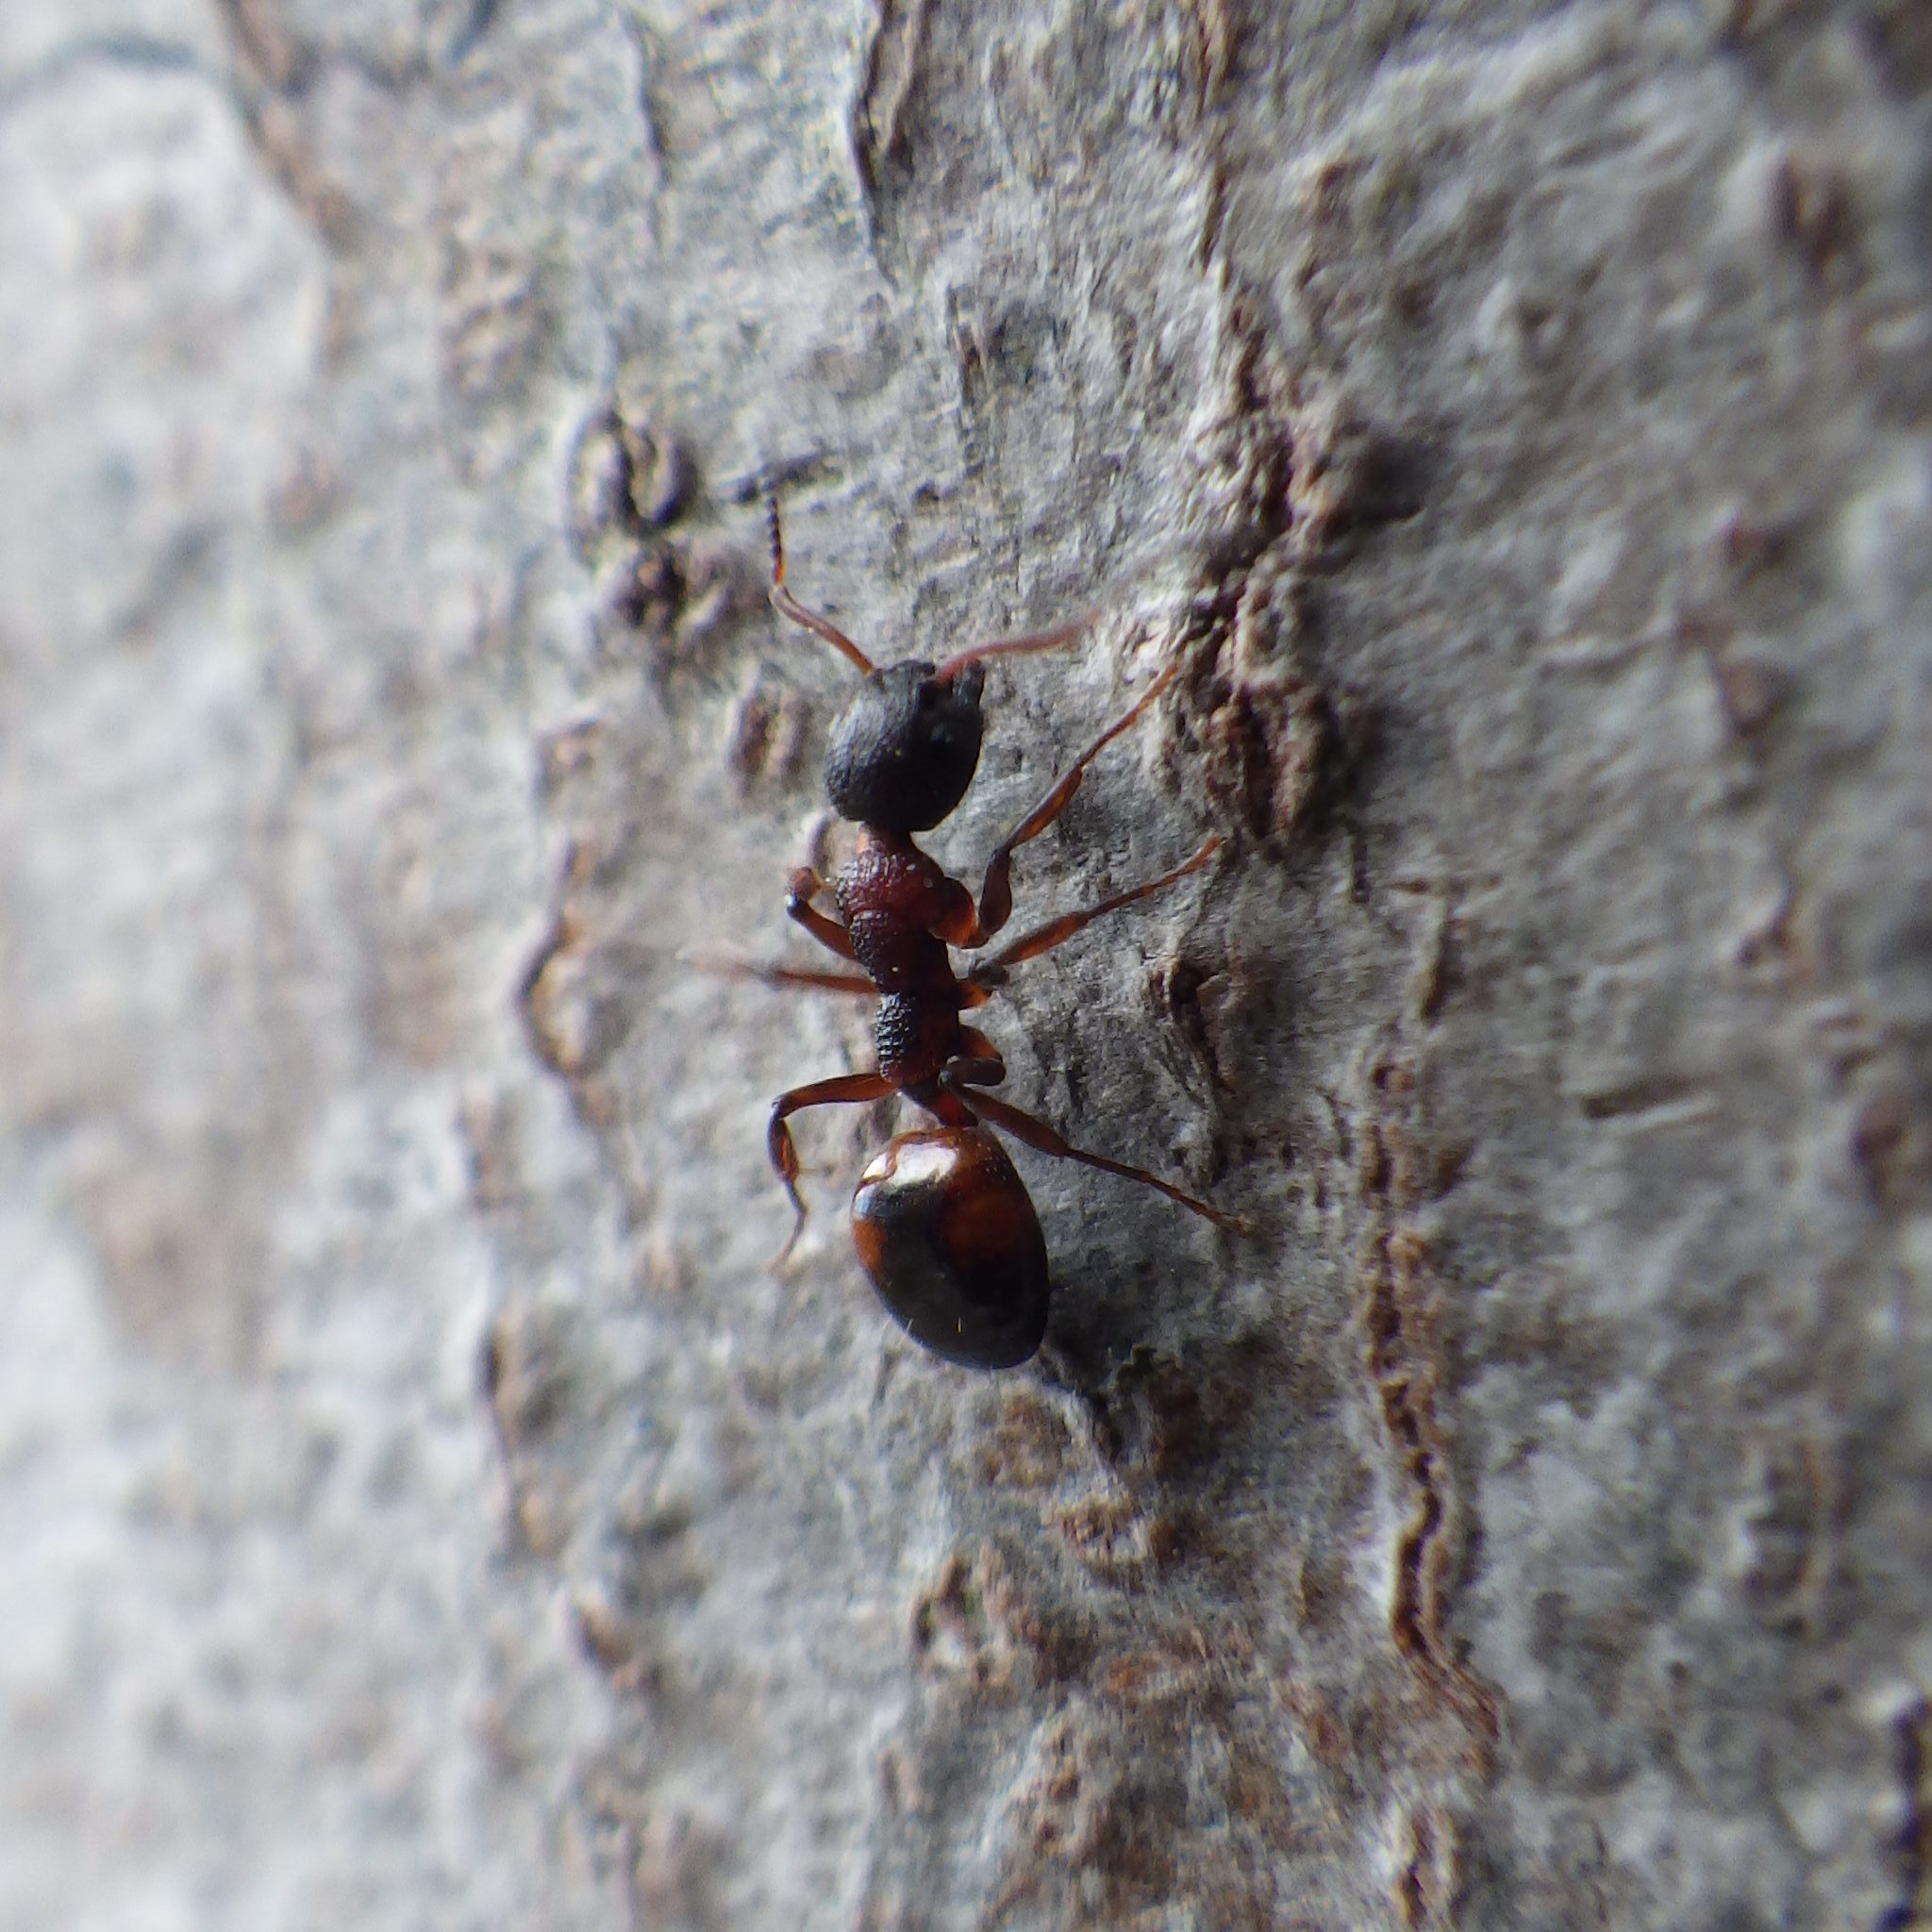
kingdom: Animalia
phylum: Arthropoda
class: Insecta
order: Hymenoptera
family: Formicidae
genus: Dolichoderus
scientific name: Dolichoderus plagiatus
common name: Mottled dolichoderus
